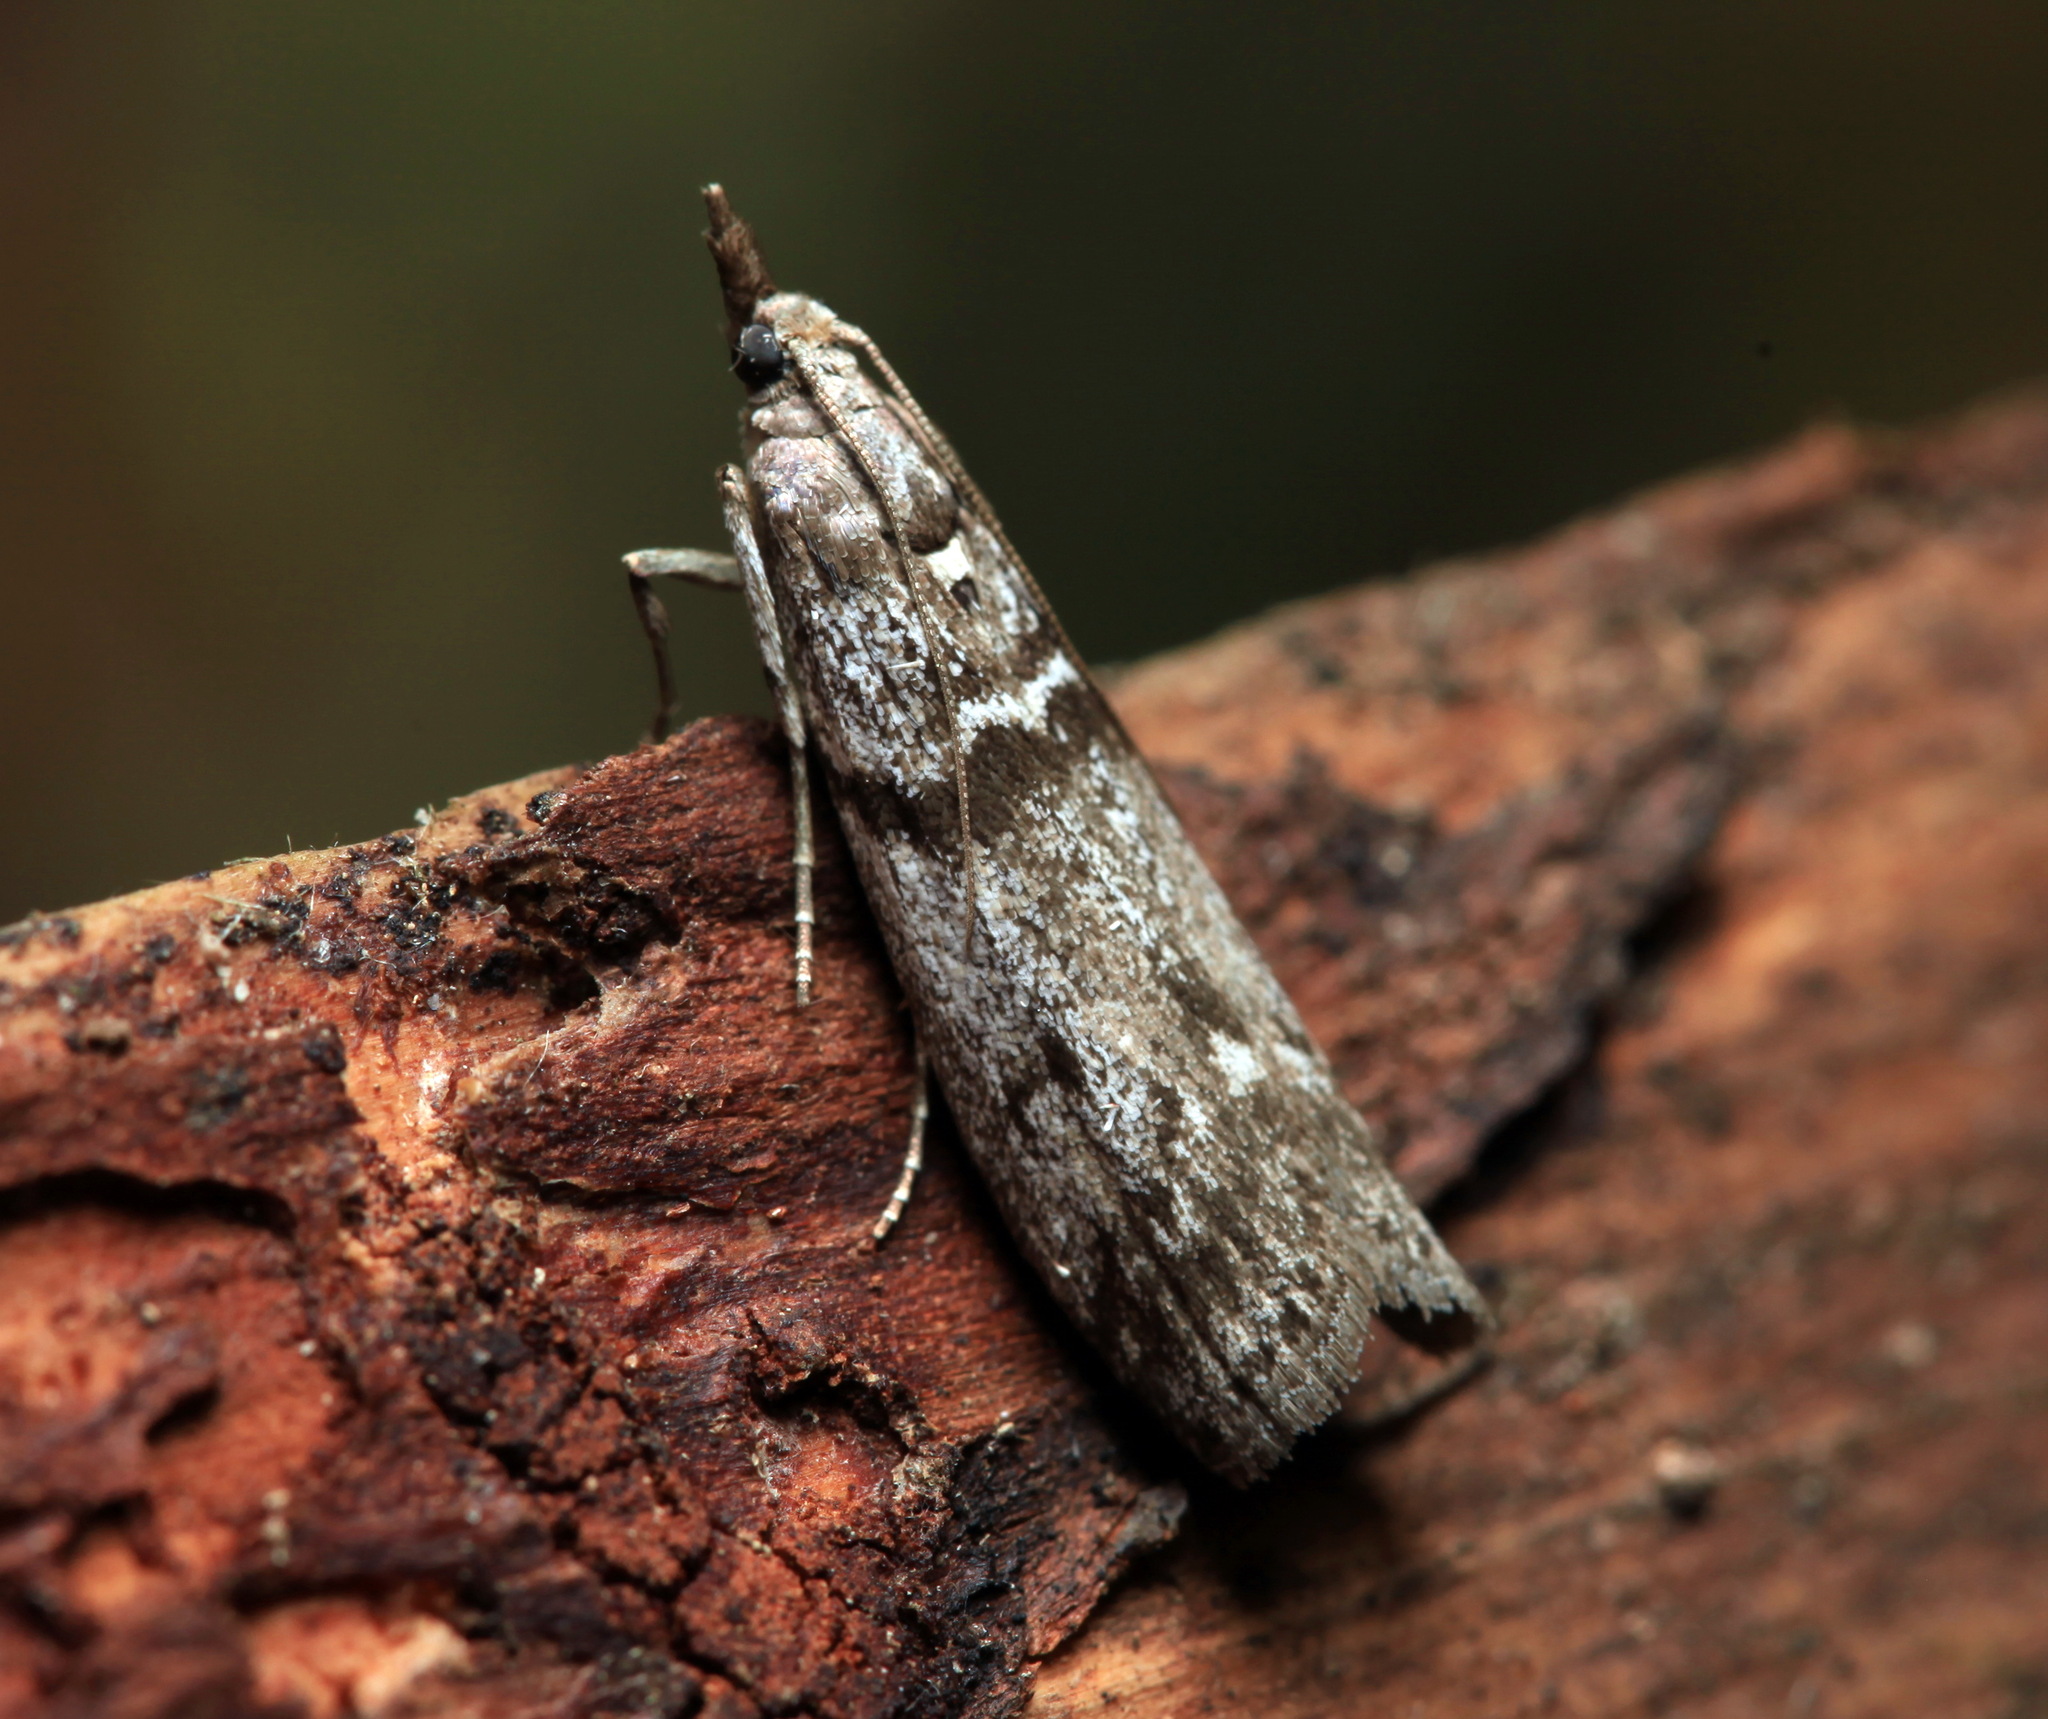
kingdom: Animalia
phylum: Arthropoda
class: Insecta
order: Lepidoptera
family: Pyralidae
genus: Zophodia
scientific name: Zophodia convolutella
